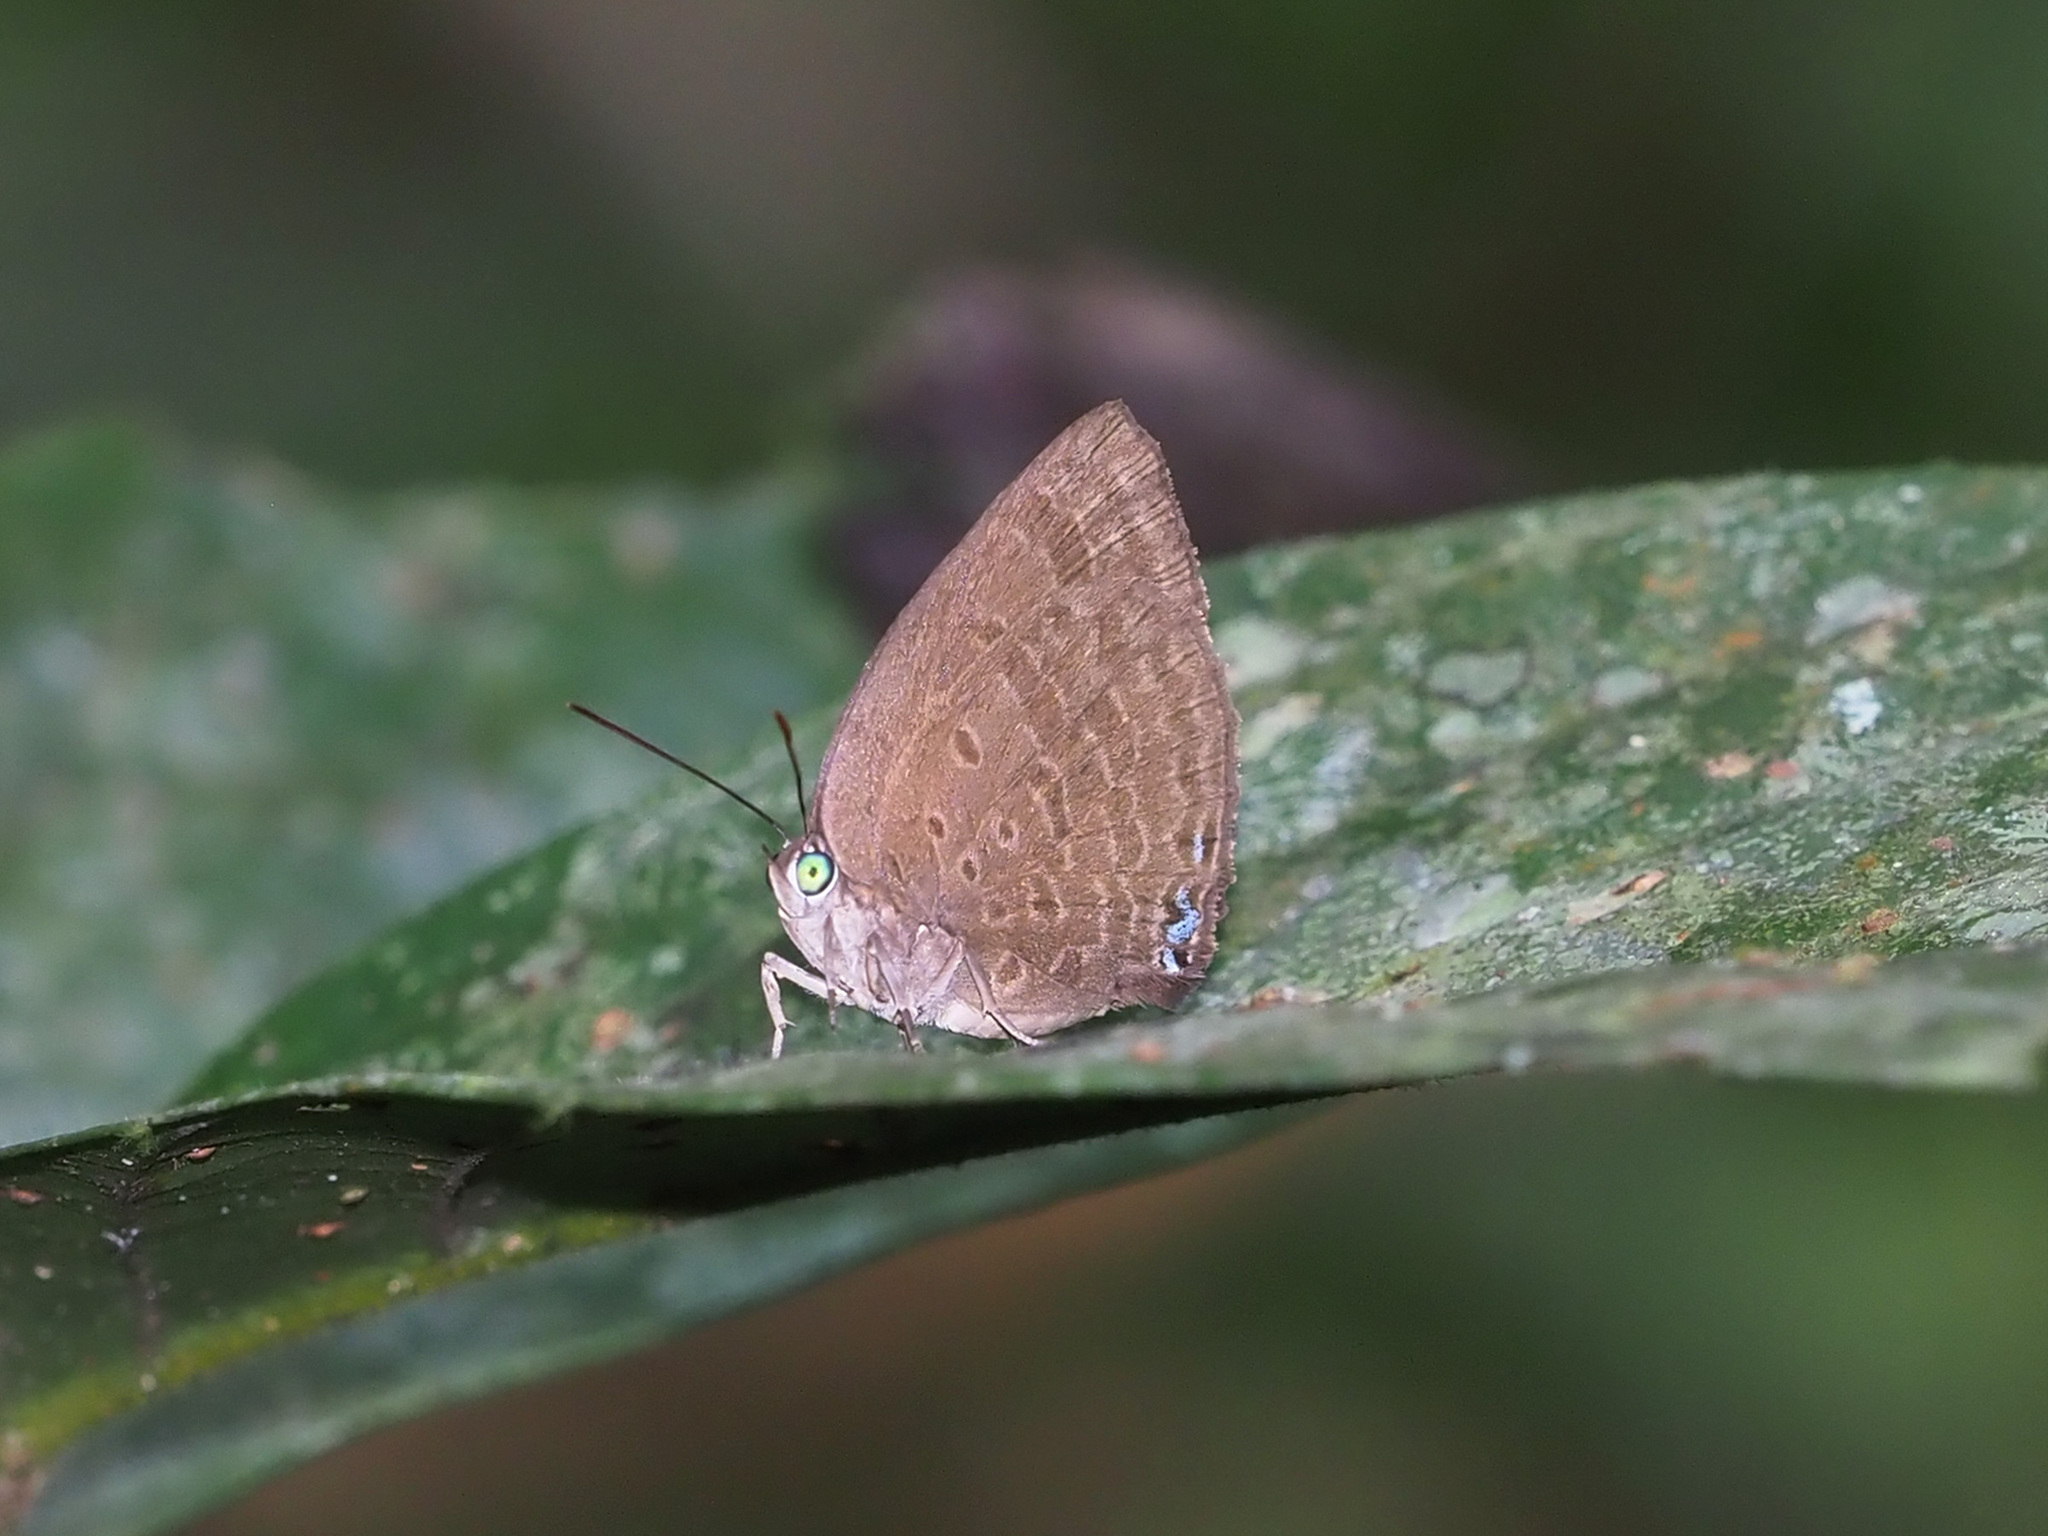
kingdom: Animalia
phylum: Arthropoda
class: Insecta
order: Lepidoptera
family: Lycaenidae
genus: Arhopala
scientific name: Arhopala agelastus
